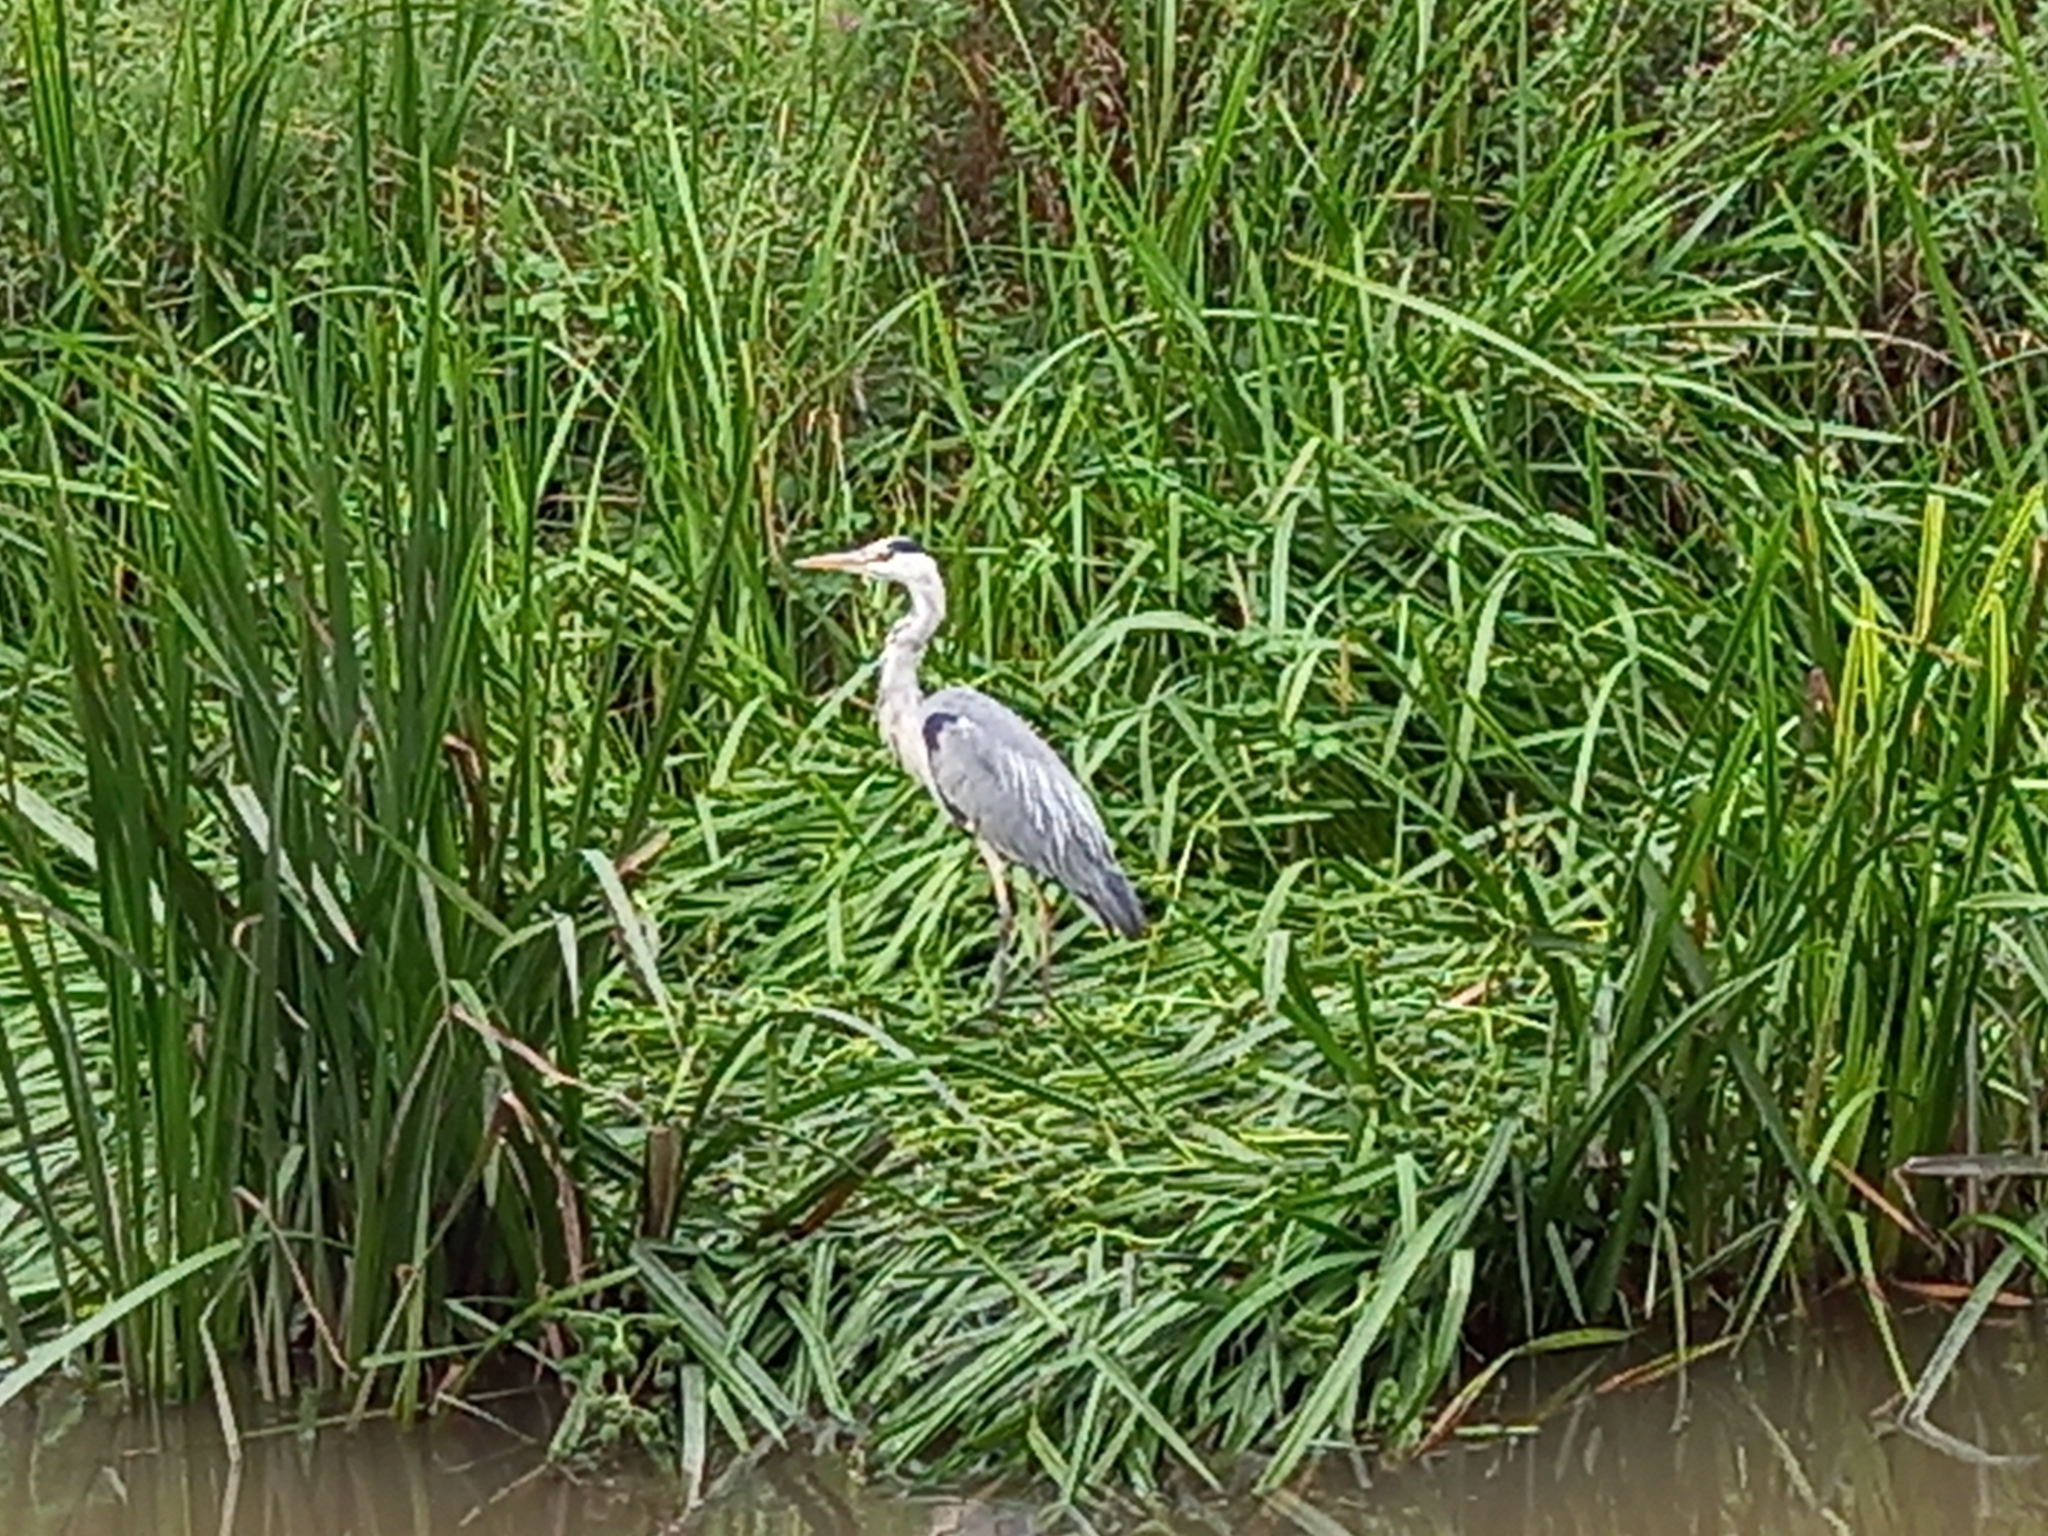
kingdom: Animalia
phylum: Chordata
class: Aves
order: Pelecaniformes
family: Ardeidae
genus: Ardea
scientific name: Ardea cinerea
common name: Grey heron
